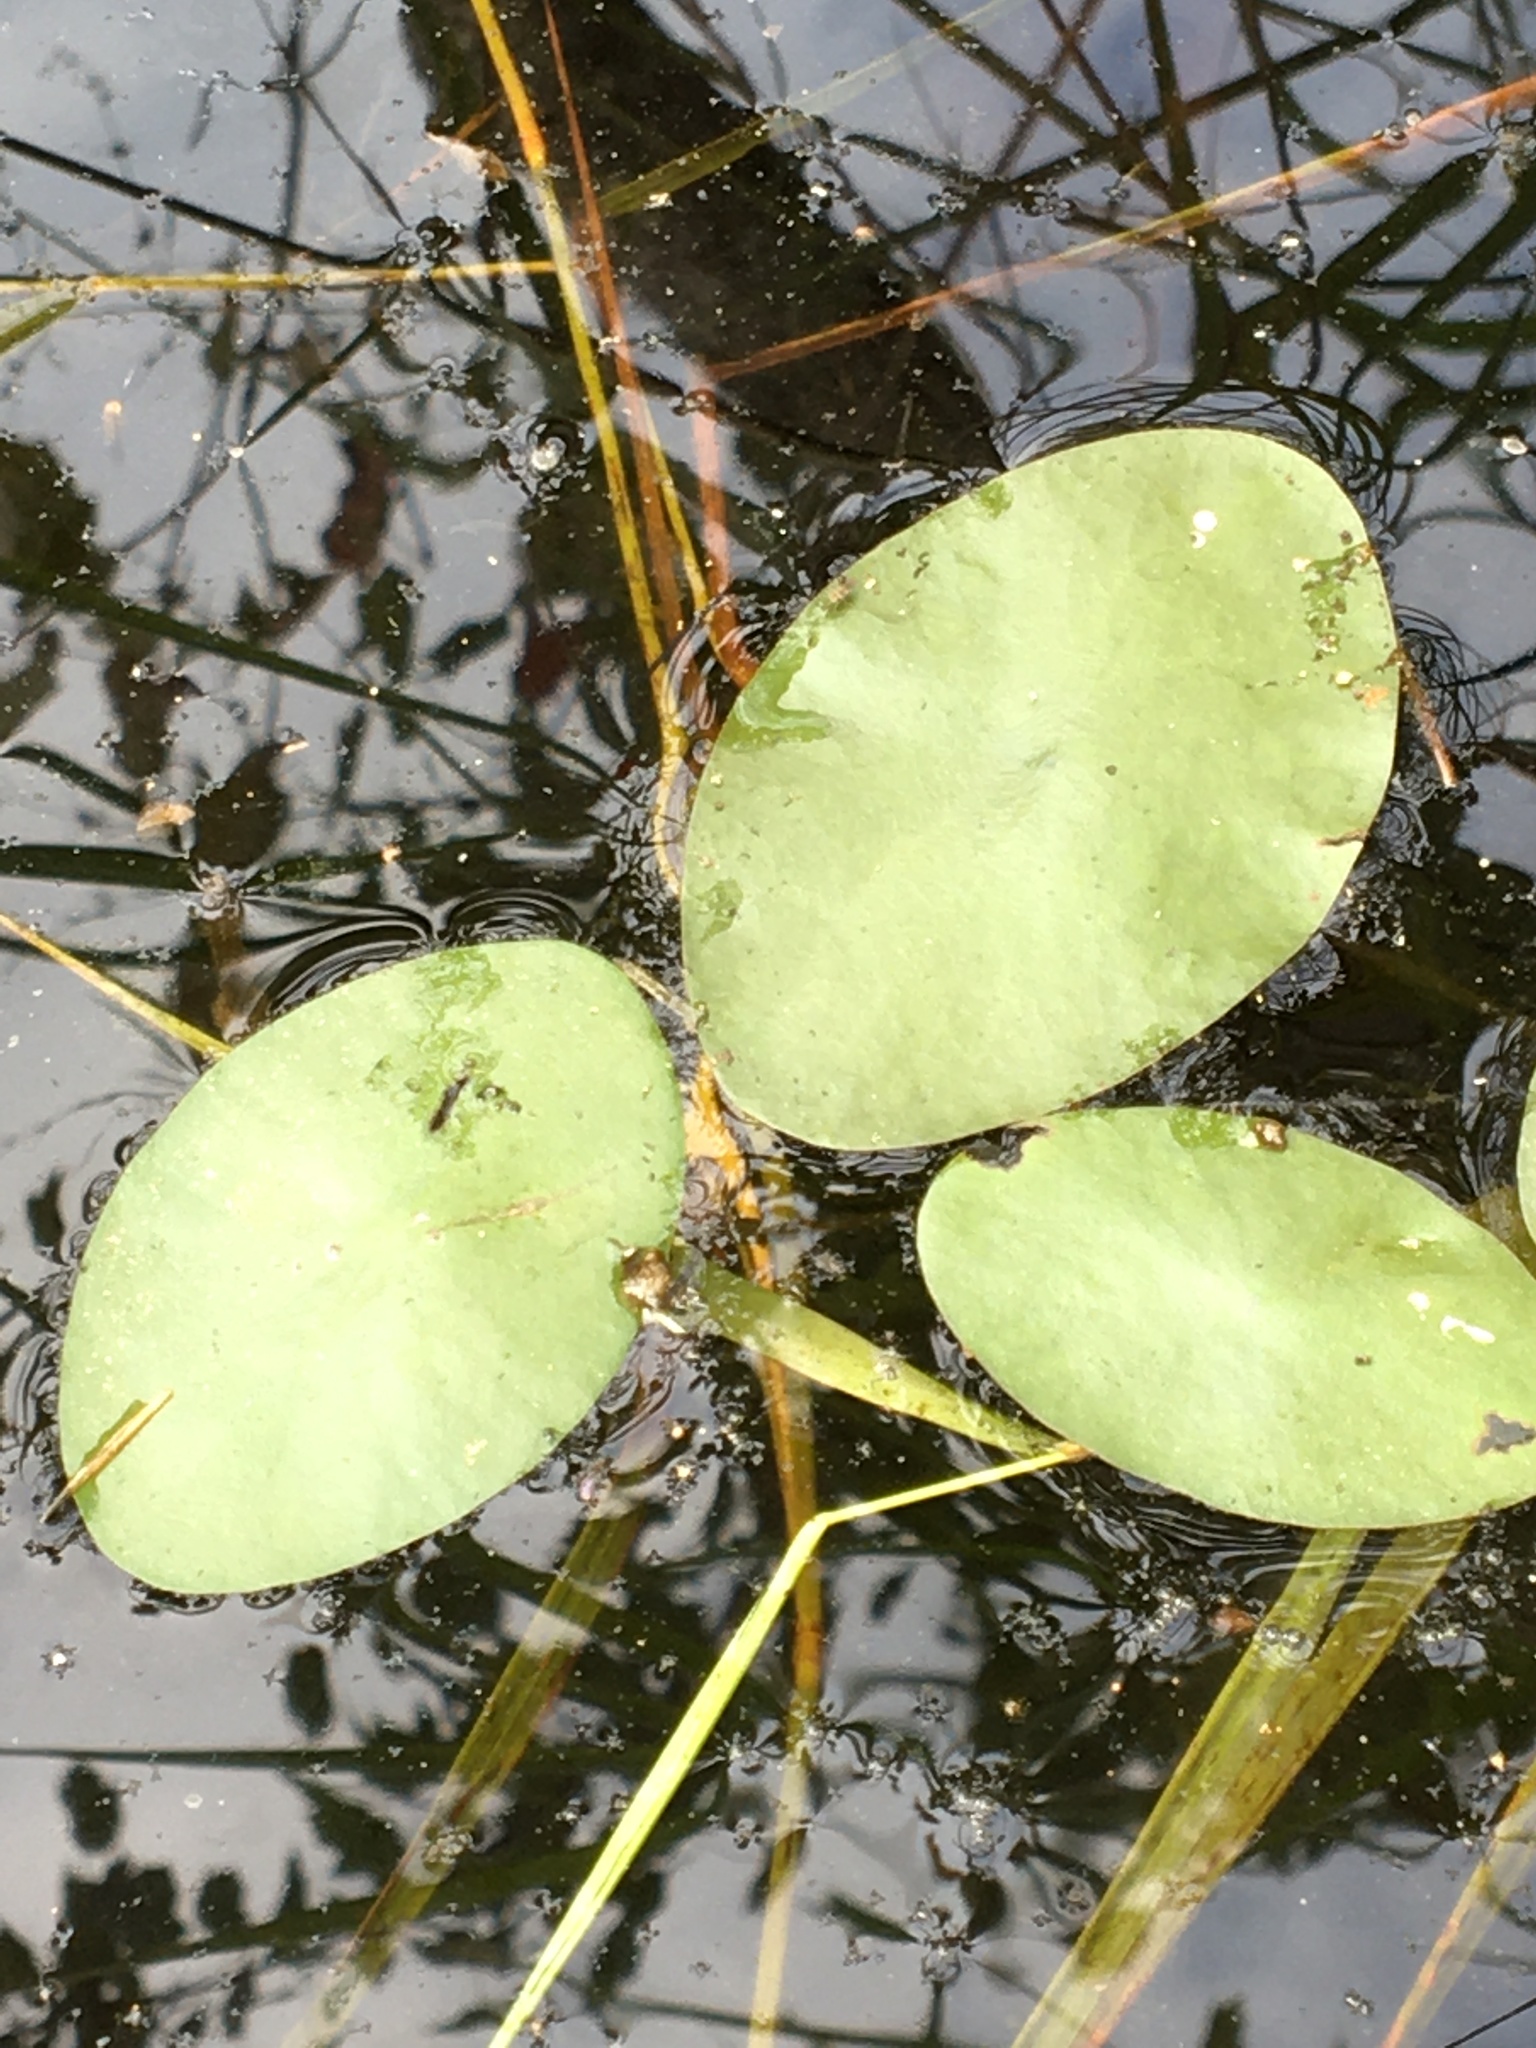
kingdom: Plantae
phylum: Tracheophyta
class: Magnoliopsida
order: Nymphaeales
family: Cabombaceae
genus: Brasenia
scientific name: Brasenia schreberi
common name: Water-shield
